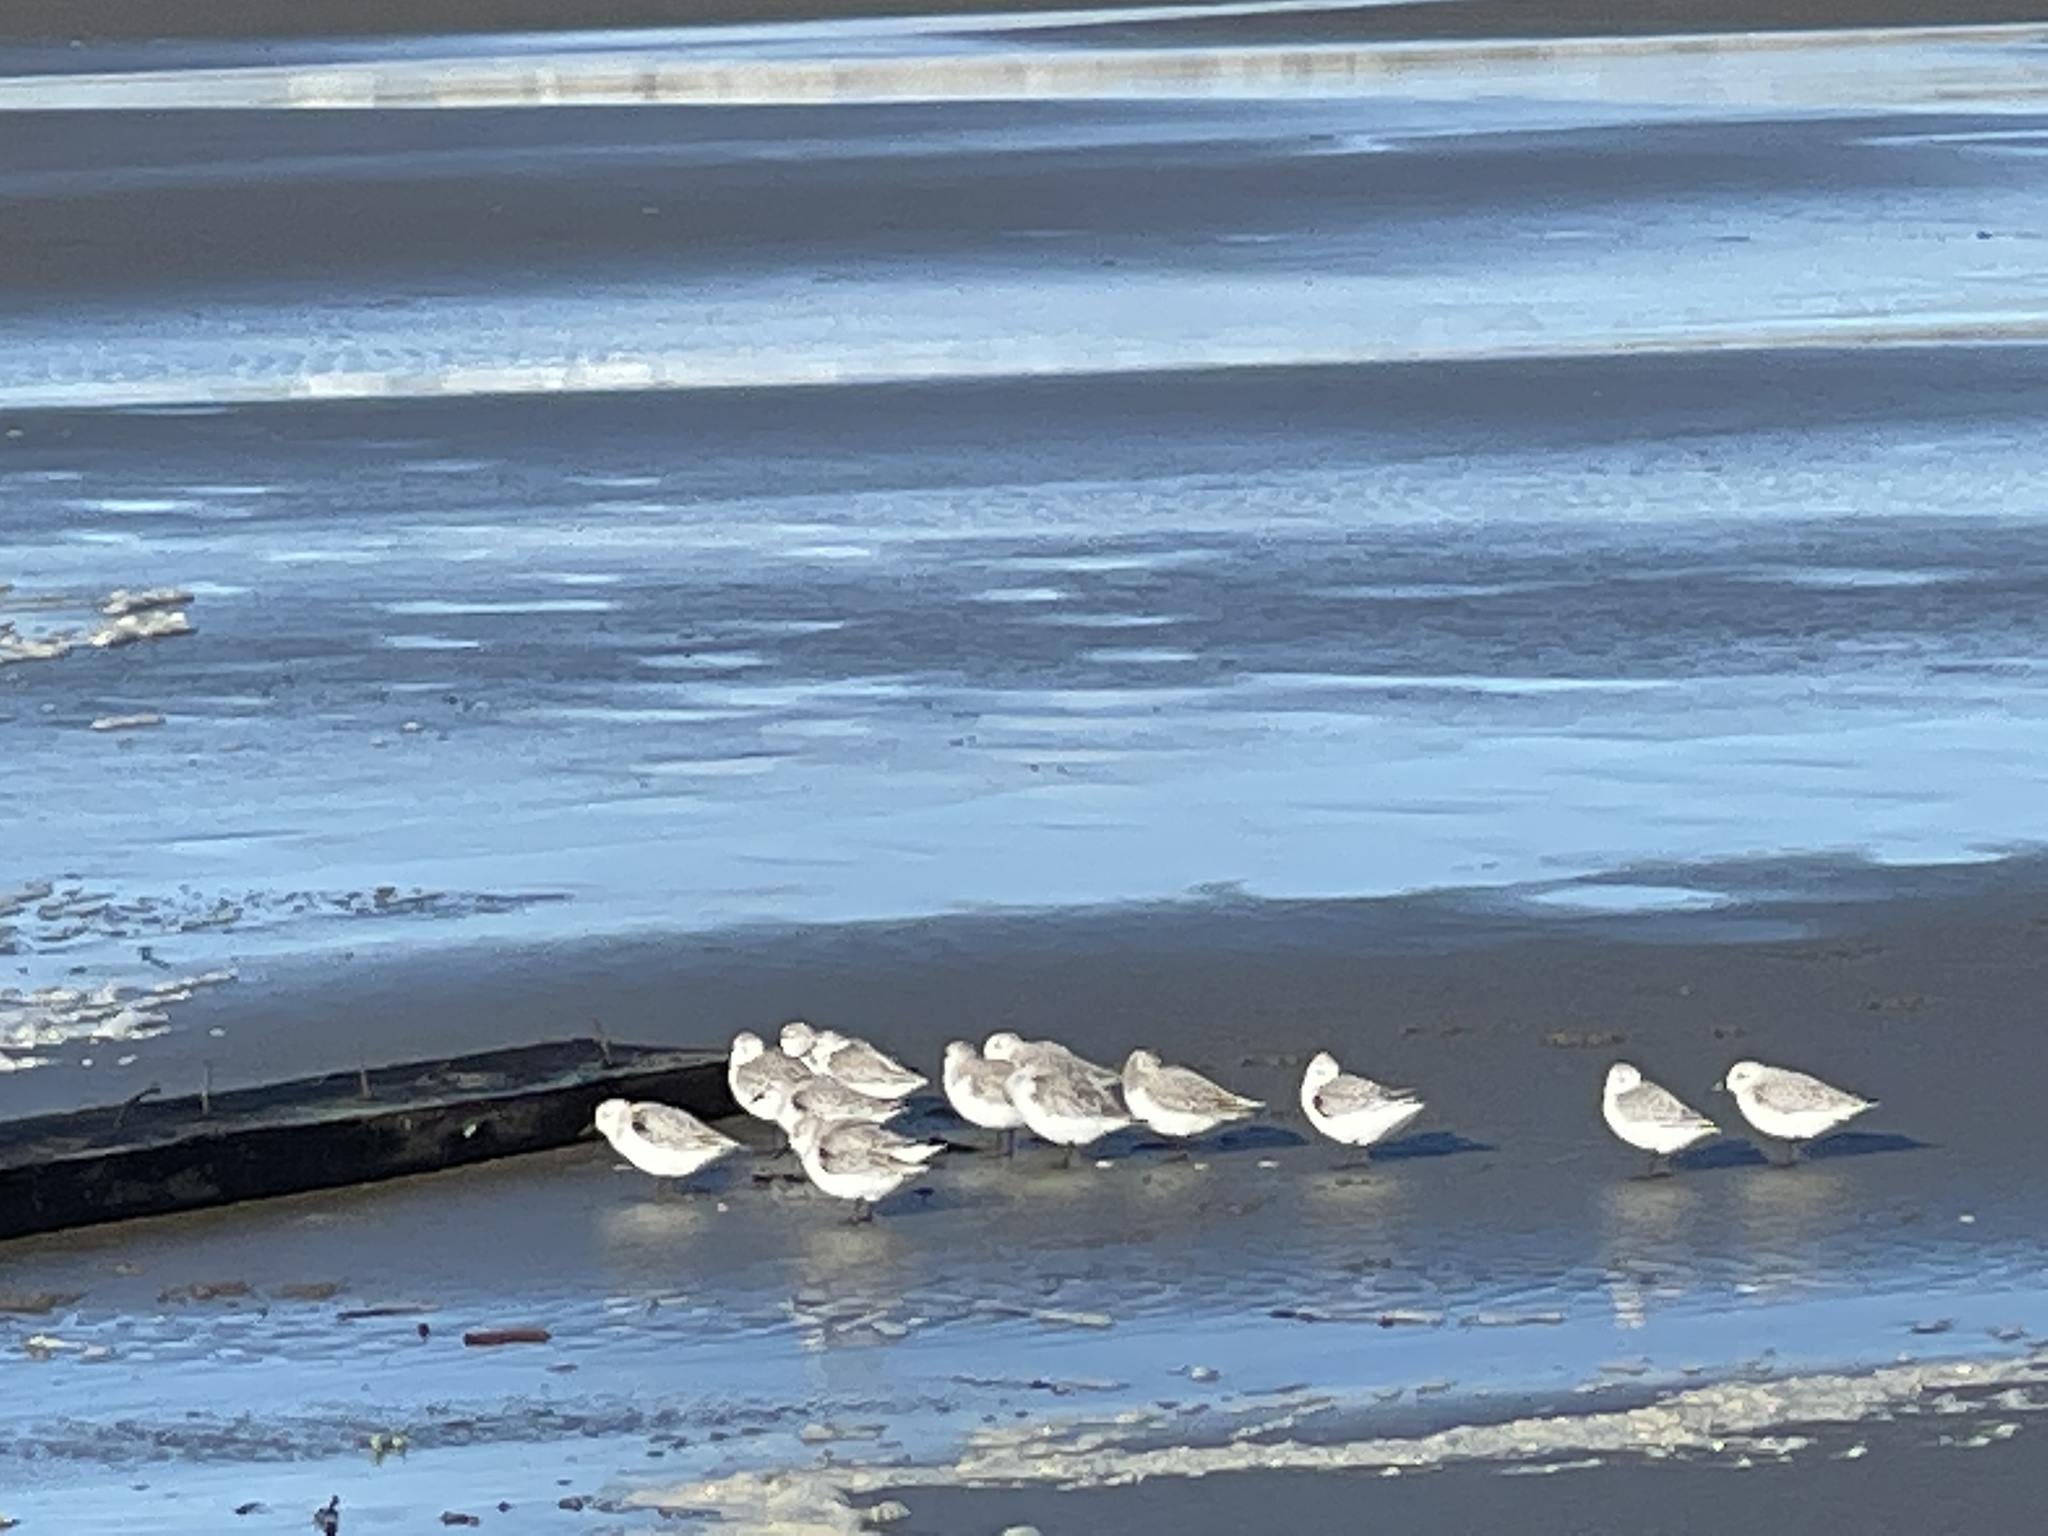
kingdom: Animalia
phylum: Chordata
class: Aves
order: Charadriiformes
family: Scolopacidae
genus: Calidris
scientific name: Calidris alba
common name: Sanderling
